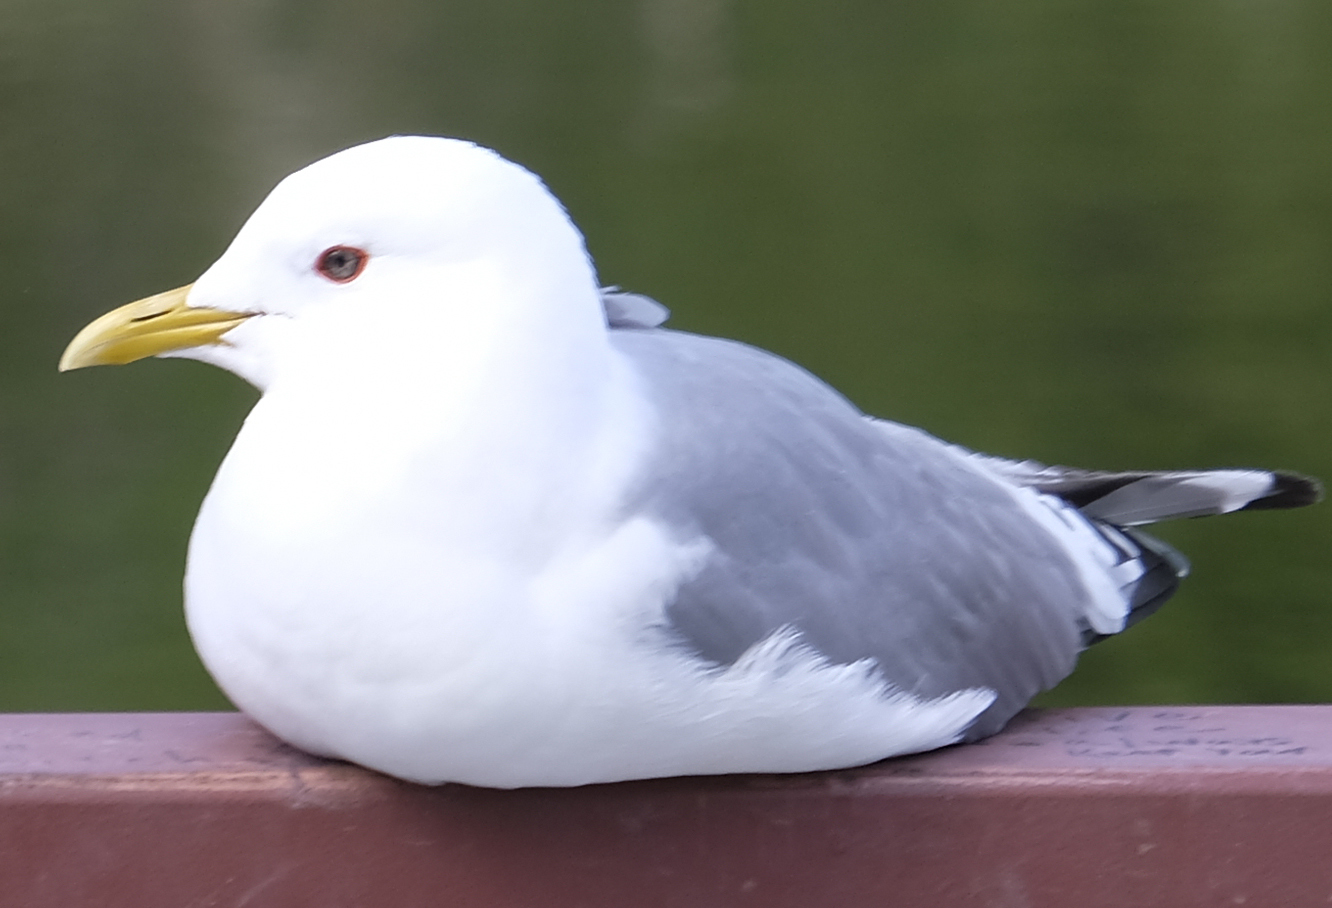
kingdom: Animalia
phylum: Chordata
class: Aves
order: Charadriiformes
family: Laridae
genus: Larus
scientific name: Larus brachyrhynchus
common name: Short-billed gull
